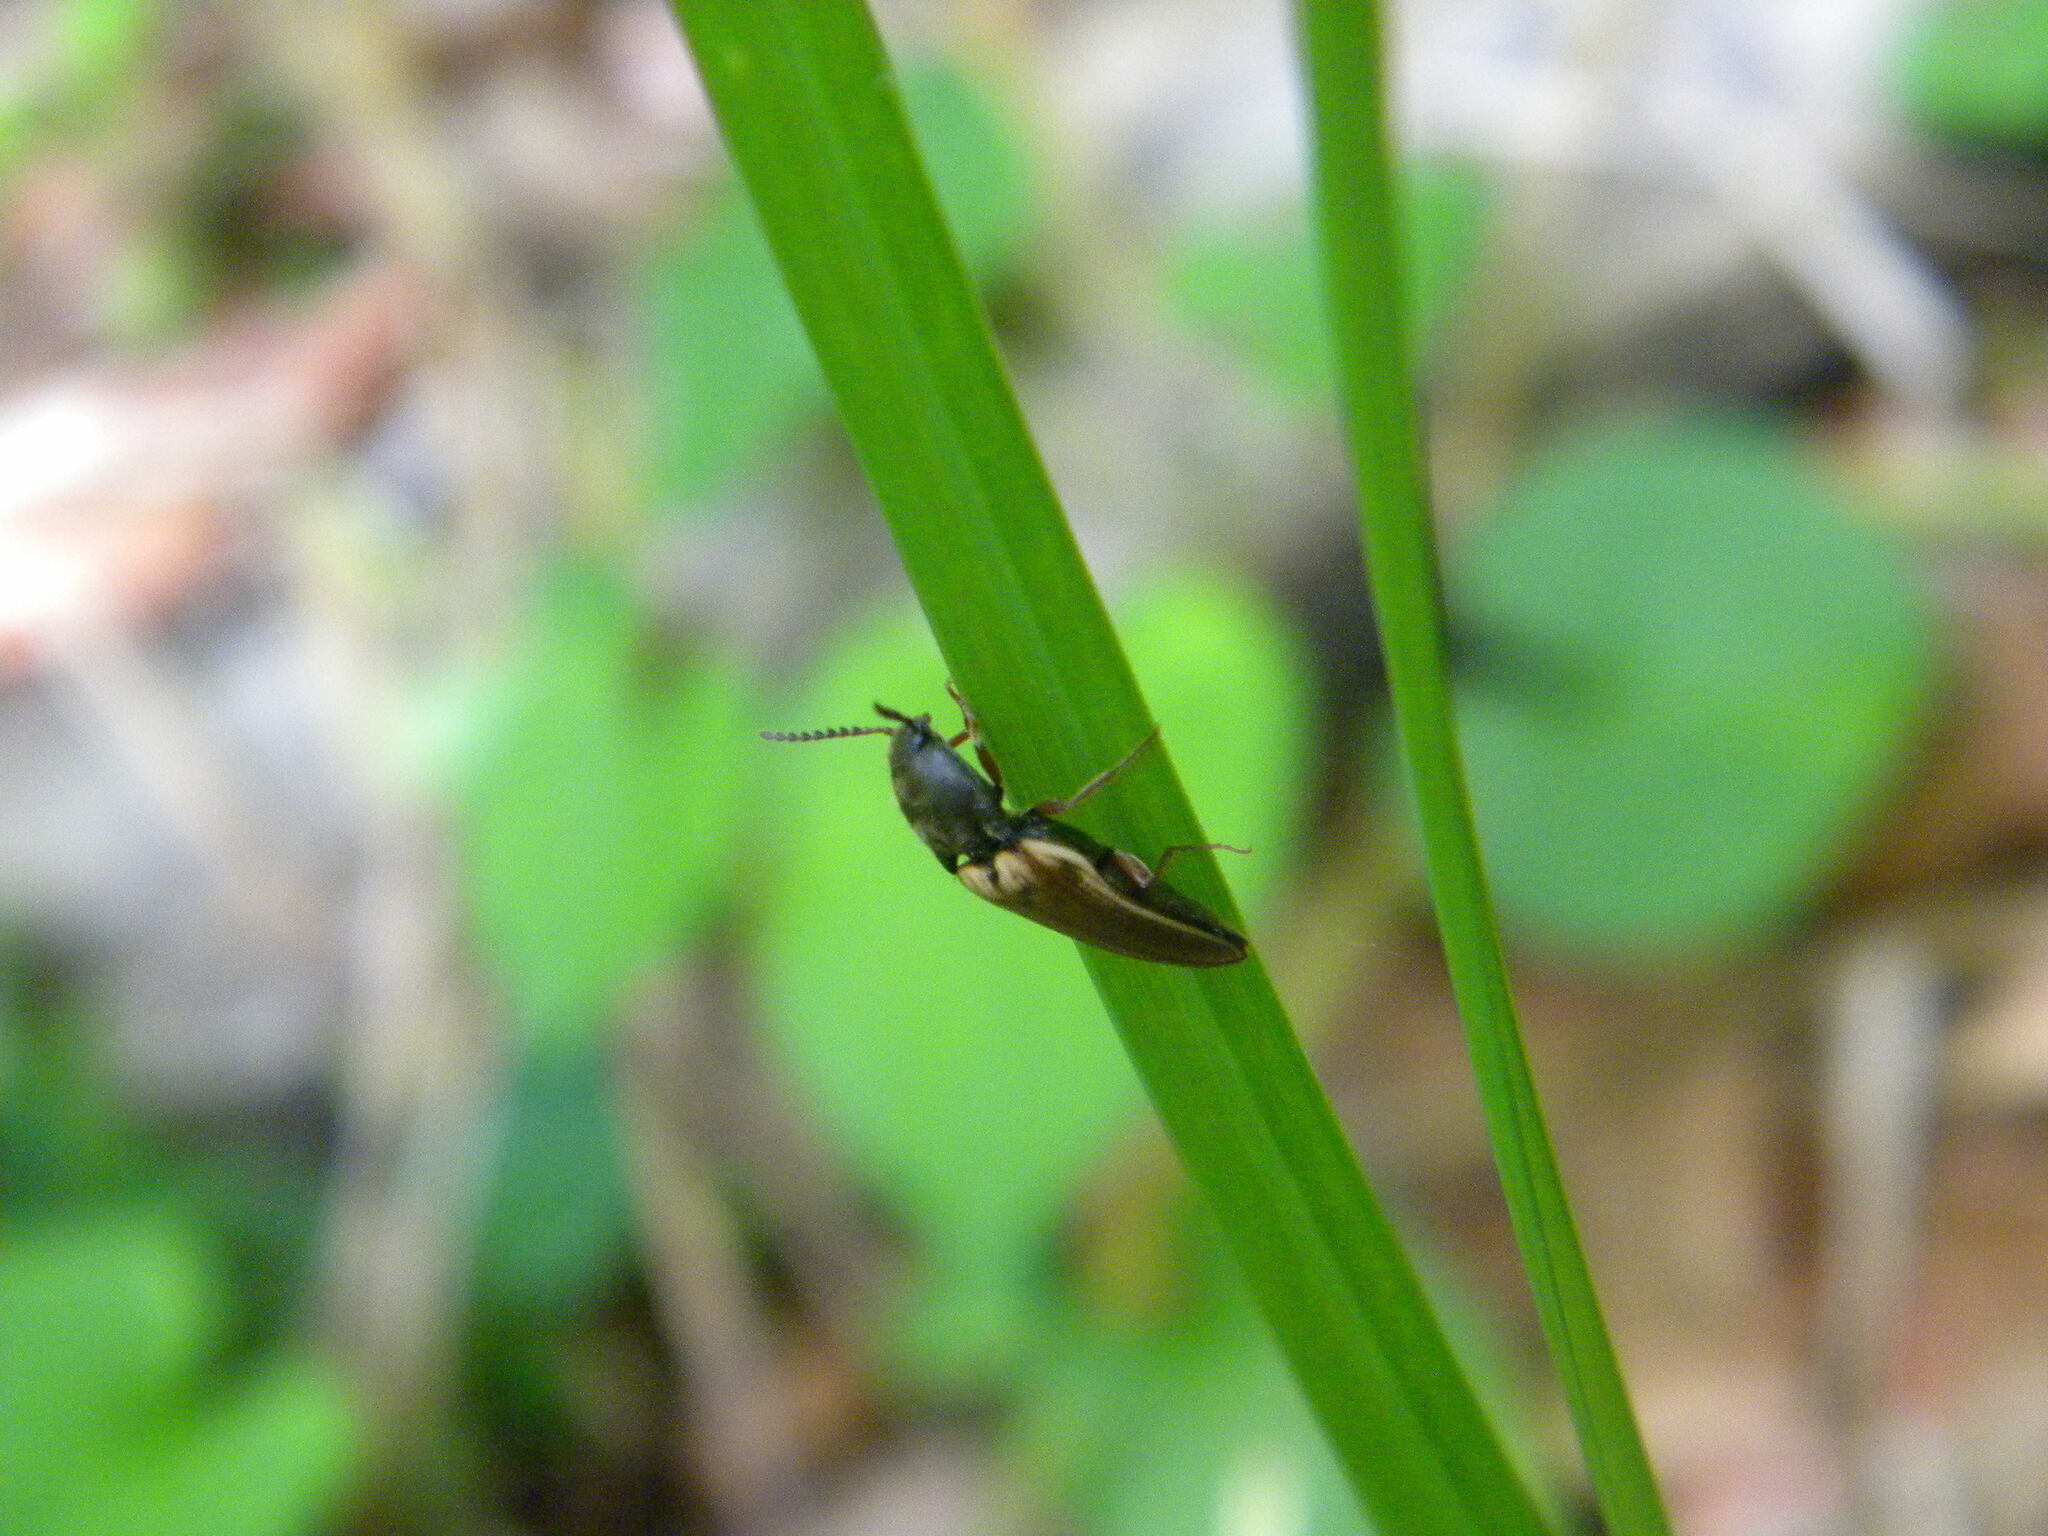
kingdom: Animalia
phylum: Arthropoda
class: Insecta
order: Coleoptera
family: Elateridae
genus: Ampedus
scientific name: Ampedus nigricollis
